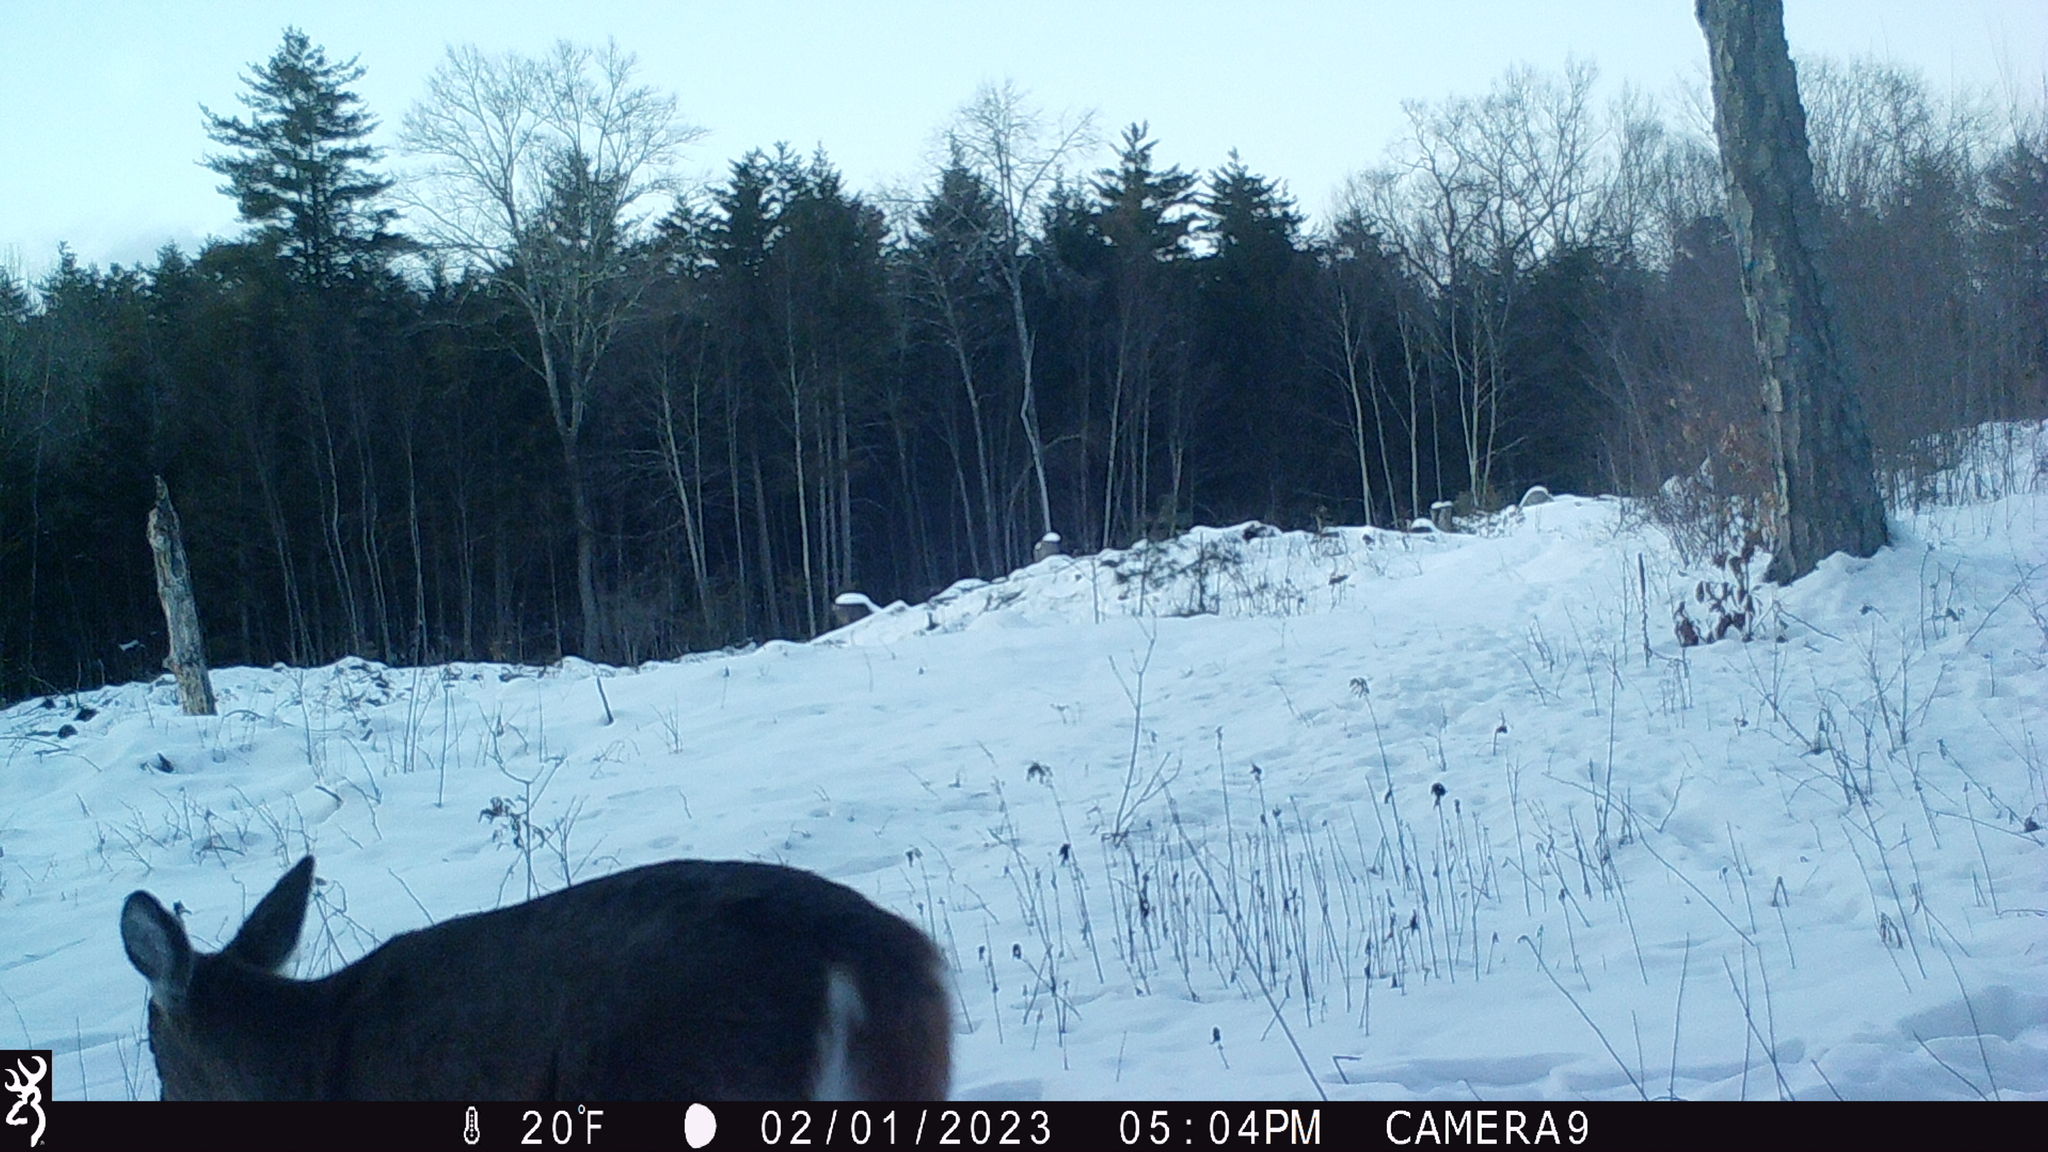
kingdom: Animalia
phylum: Chordata
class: Mammalia
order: Artiodactyla
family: Cervidae
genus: Odocoileus
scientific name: Odocoileus virginianus
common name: White-tailed deer
